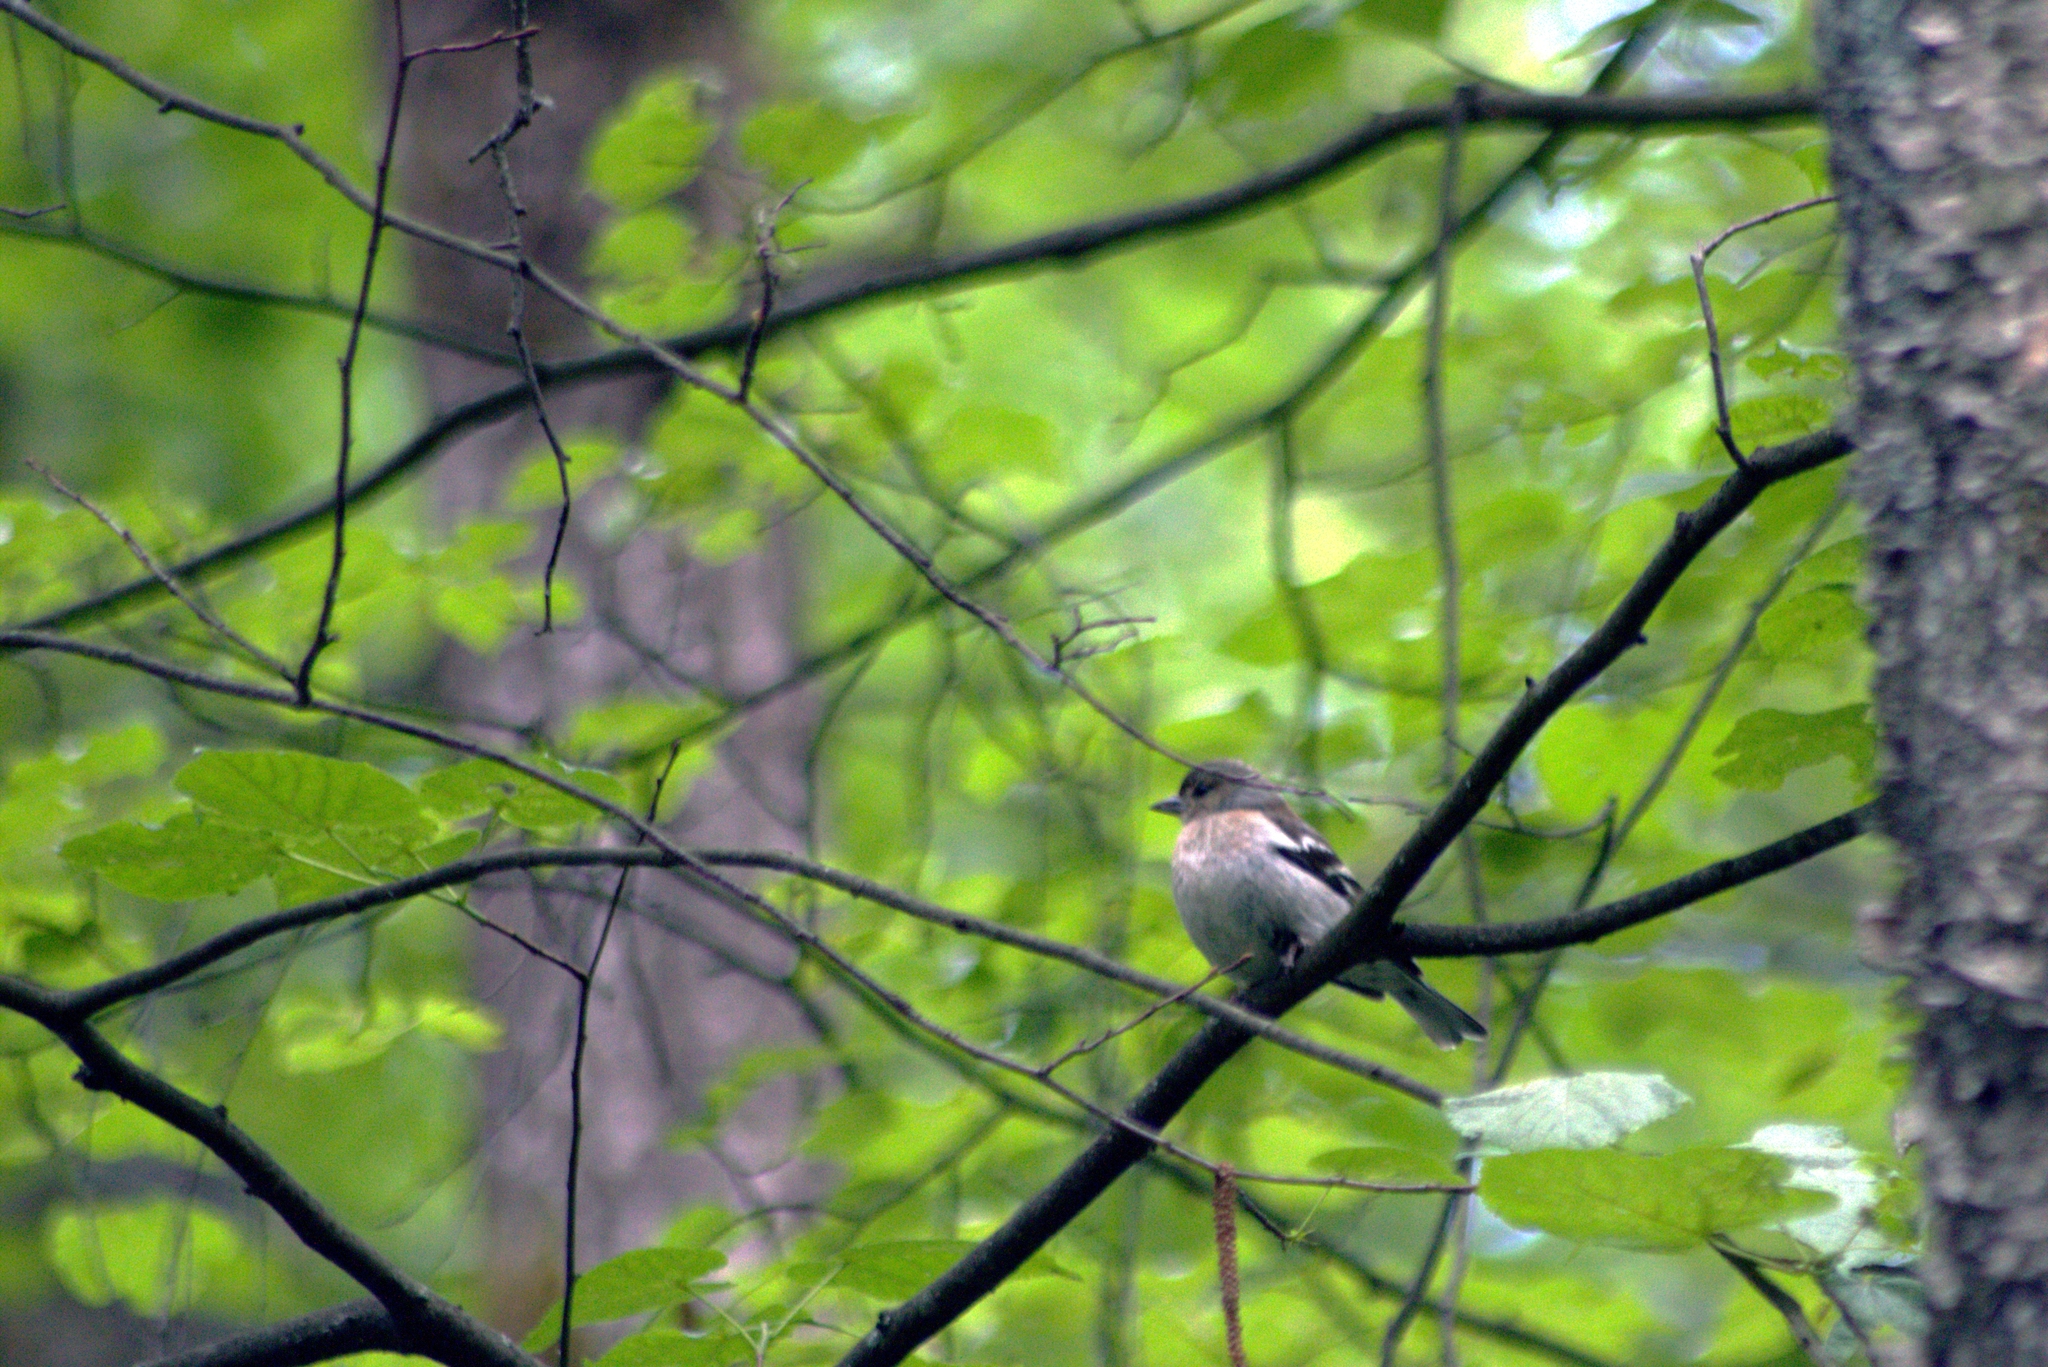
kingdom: Animalia
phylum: Chordata
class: Aves
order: Passeriformes
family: Fringillidae
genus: Fringilla
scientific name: Fringilla coelebs
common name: Common chaffinch
